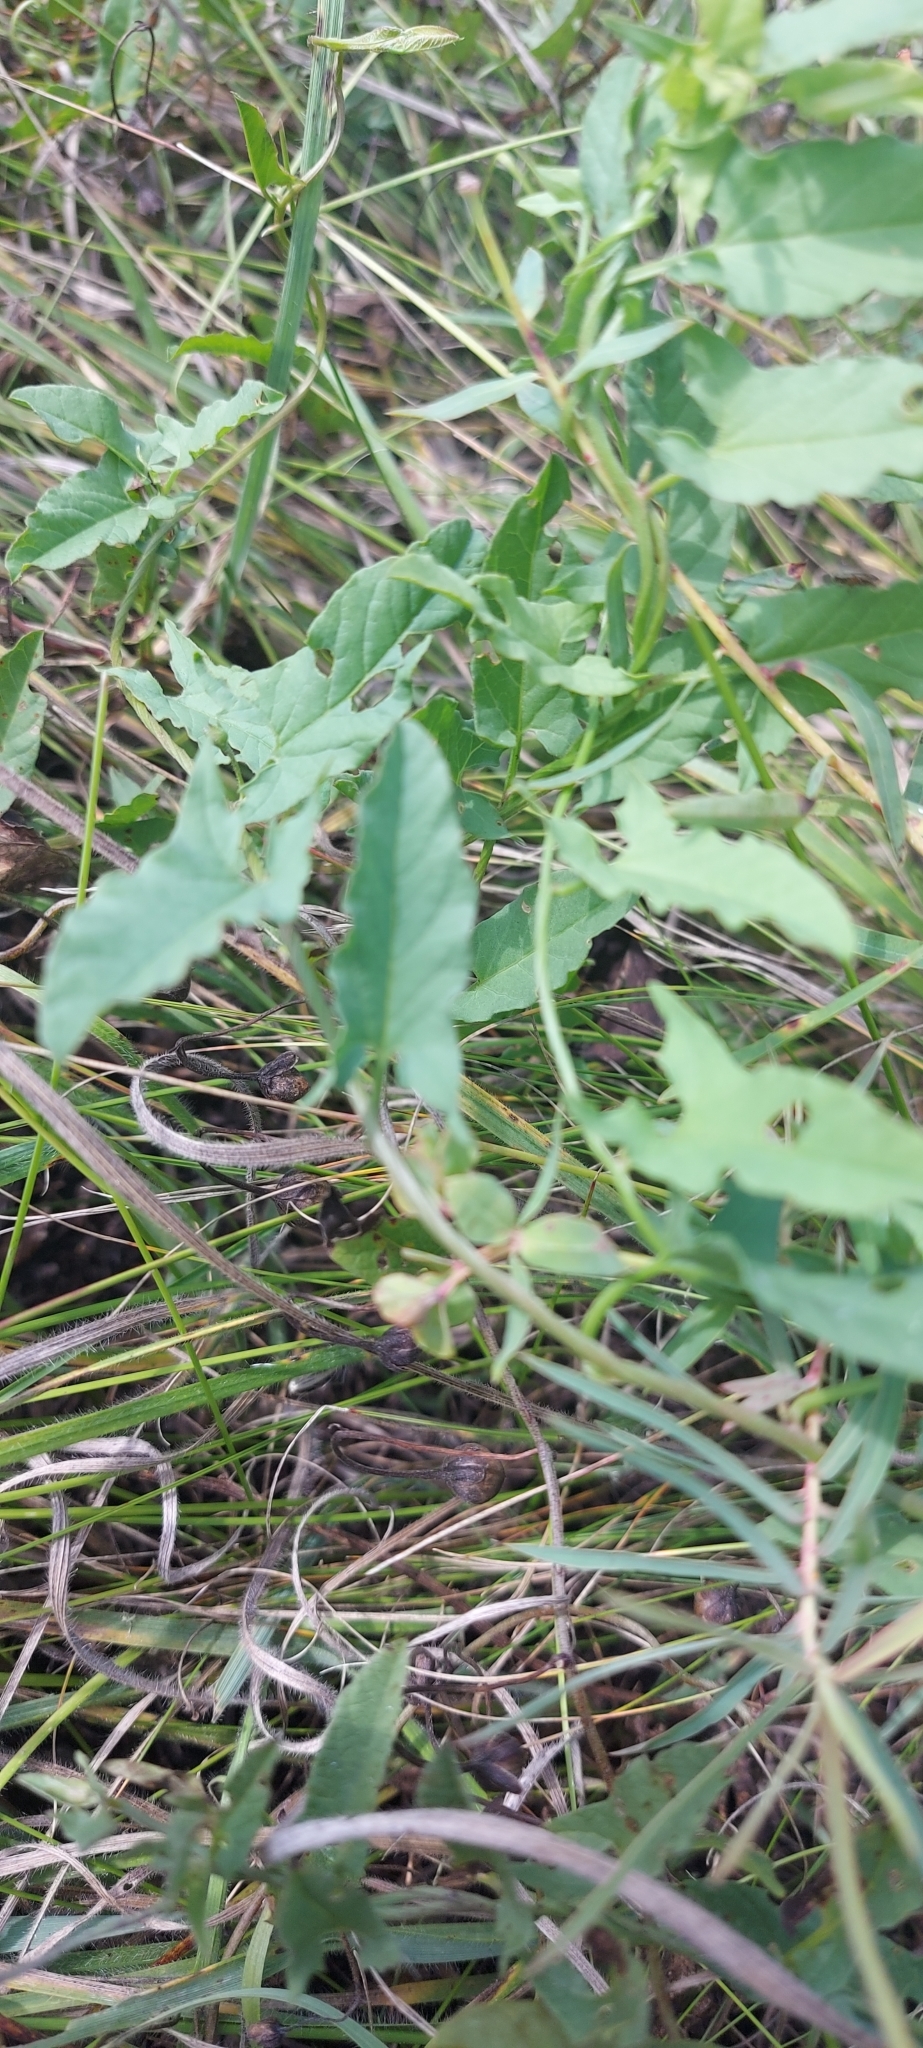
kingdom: Plantae
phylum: Tracheophyta
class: Magnoliopsida
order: Solanales
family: Convolvulaceae
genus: Convolvulus
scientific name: Convolvulus arvensis
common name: Field bindweed
